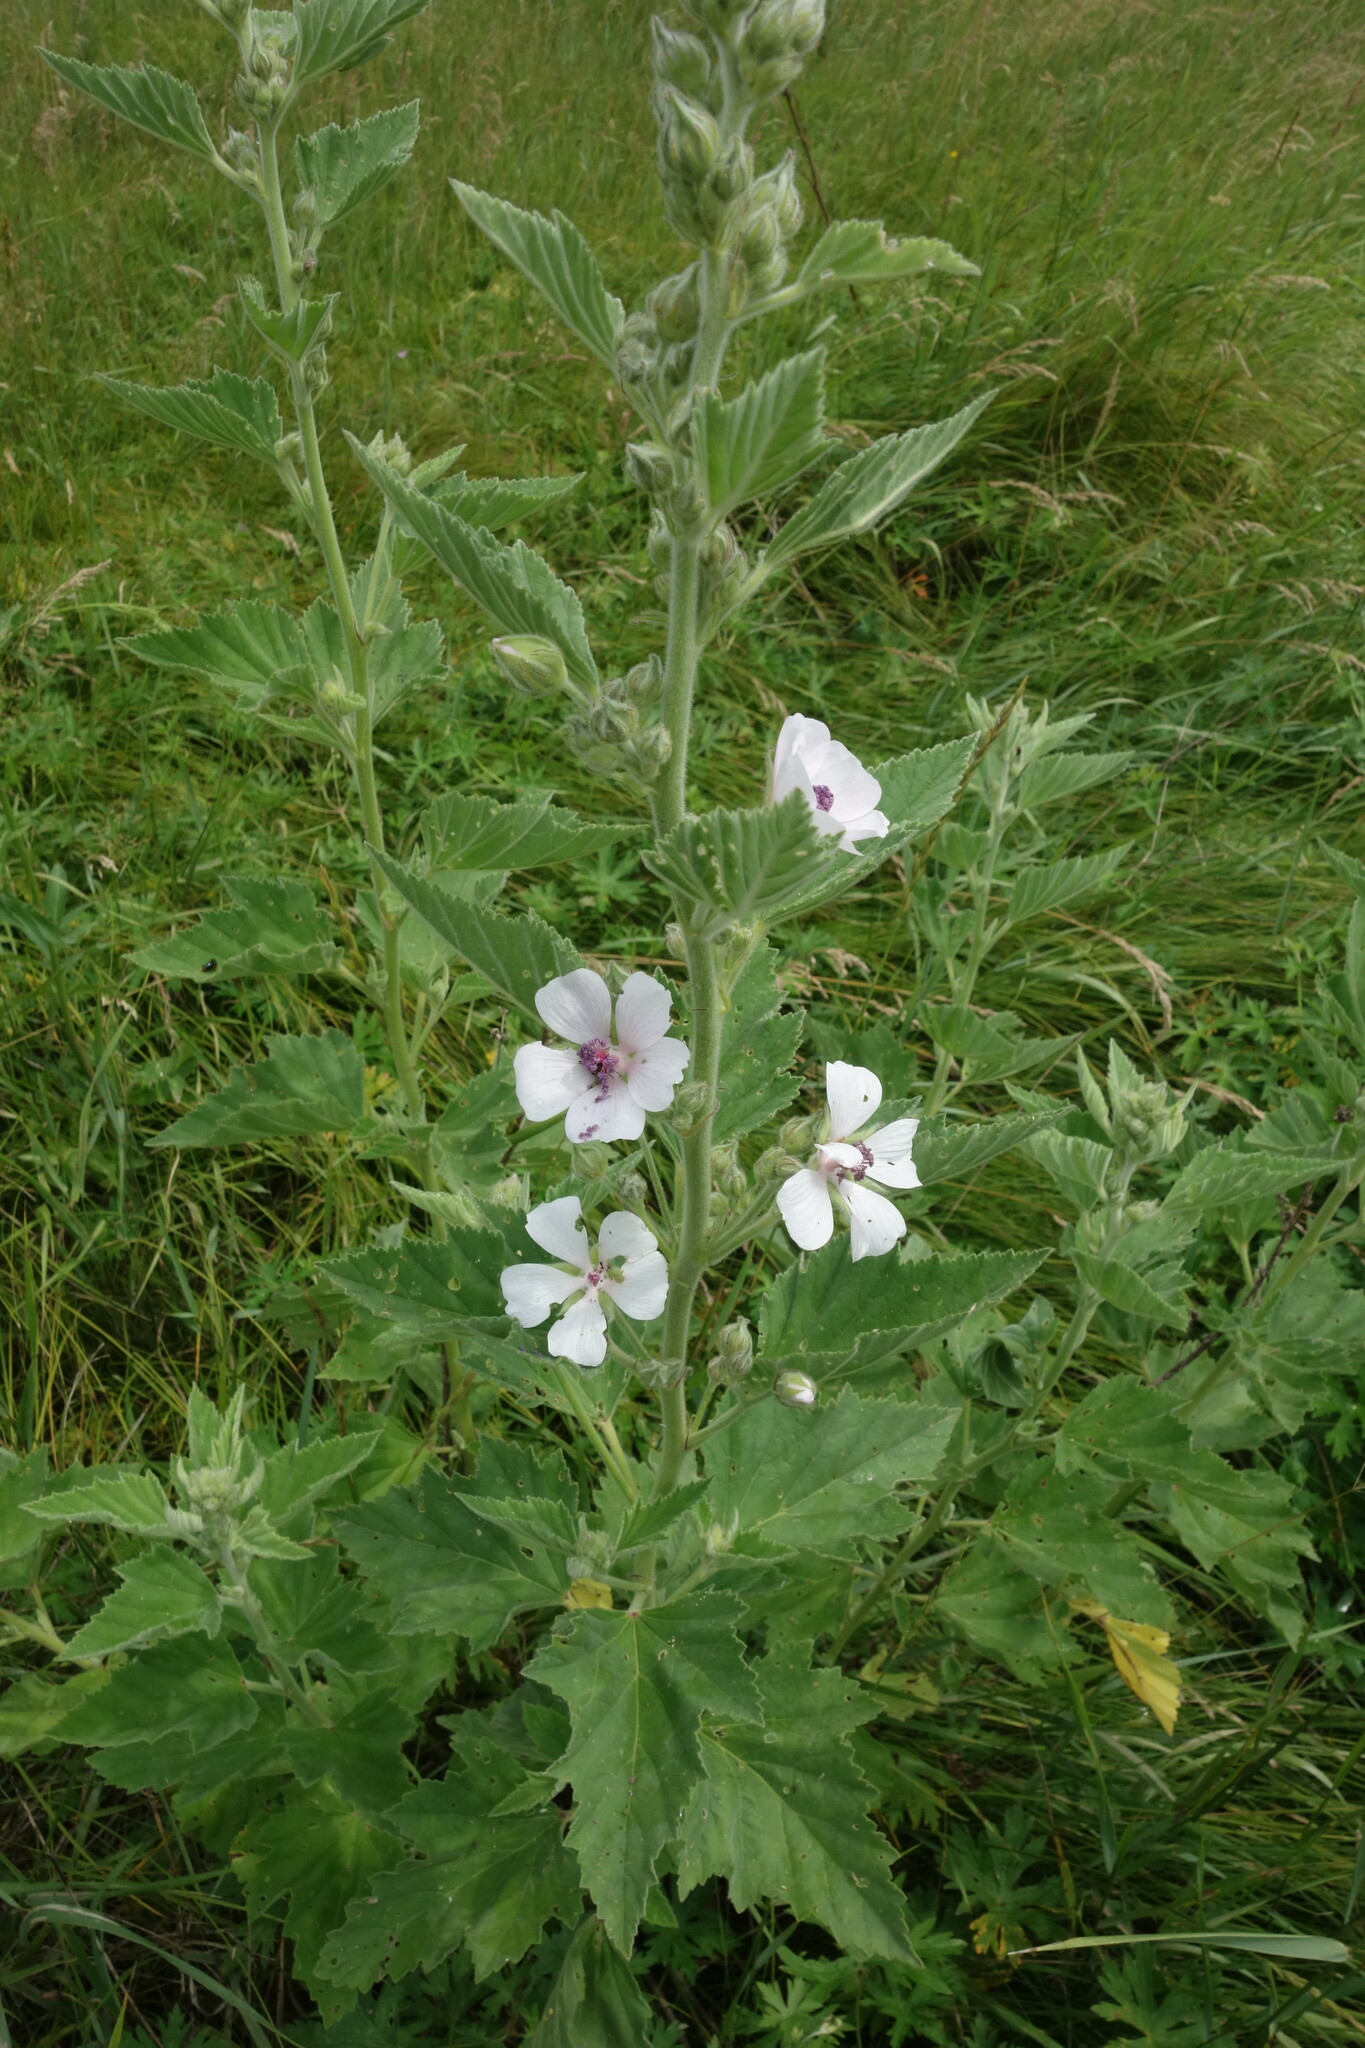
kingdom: Plantae
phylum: Tracheophyta
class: Magnoliopsida
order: Malvales
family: Malvaceae
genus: Althaea
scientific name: Althaea officinalis
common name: Marsh-mallow
